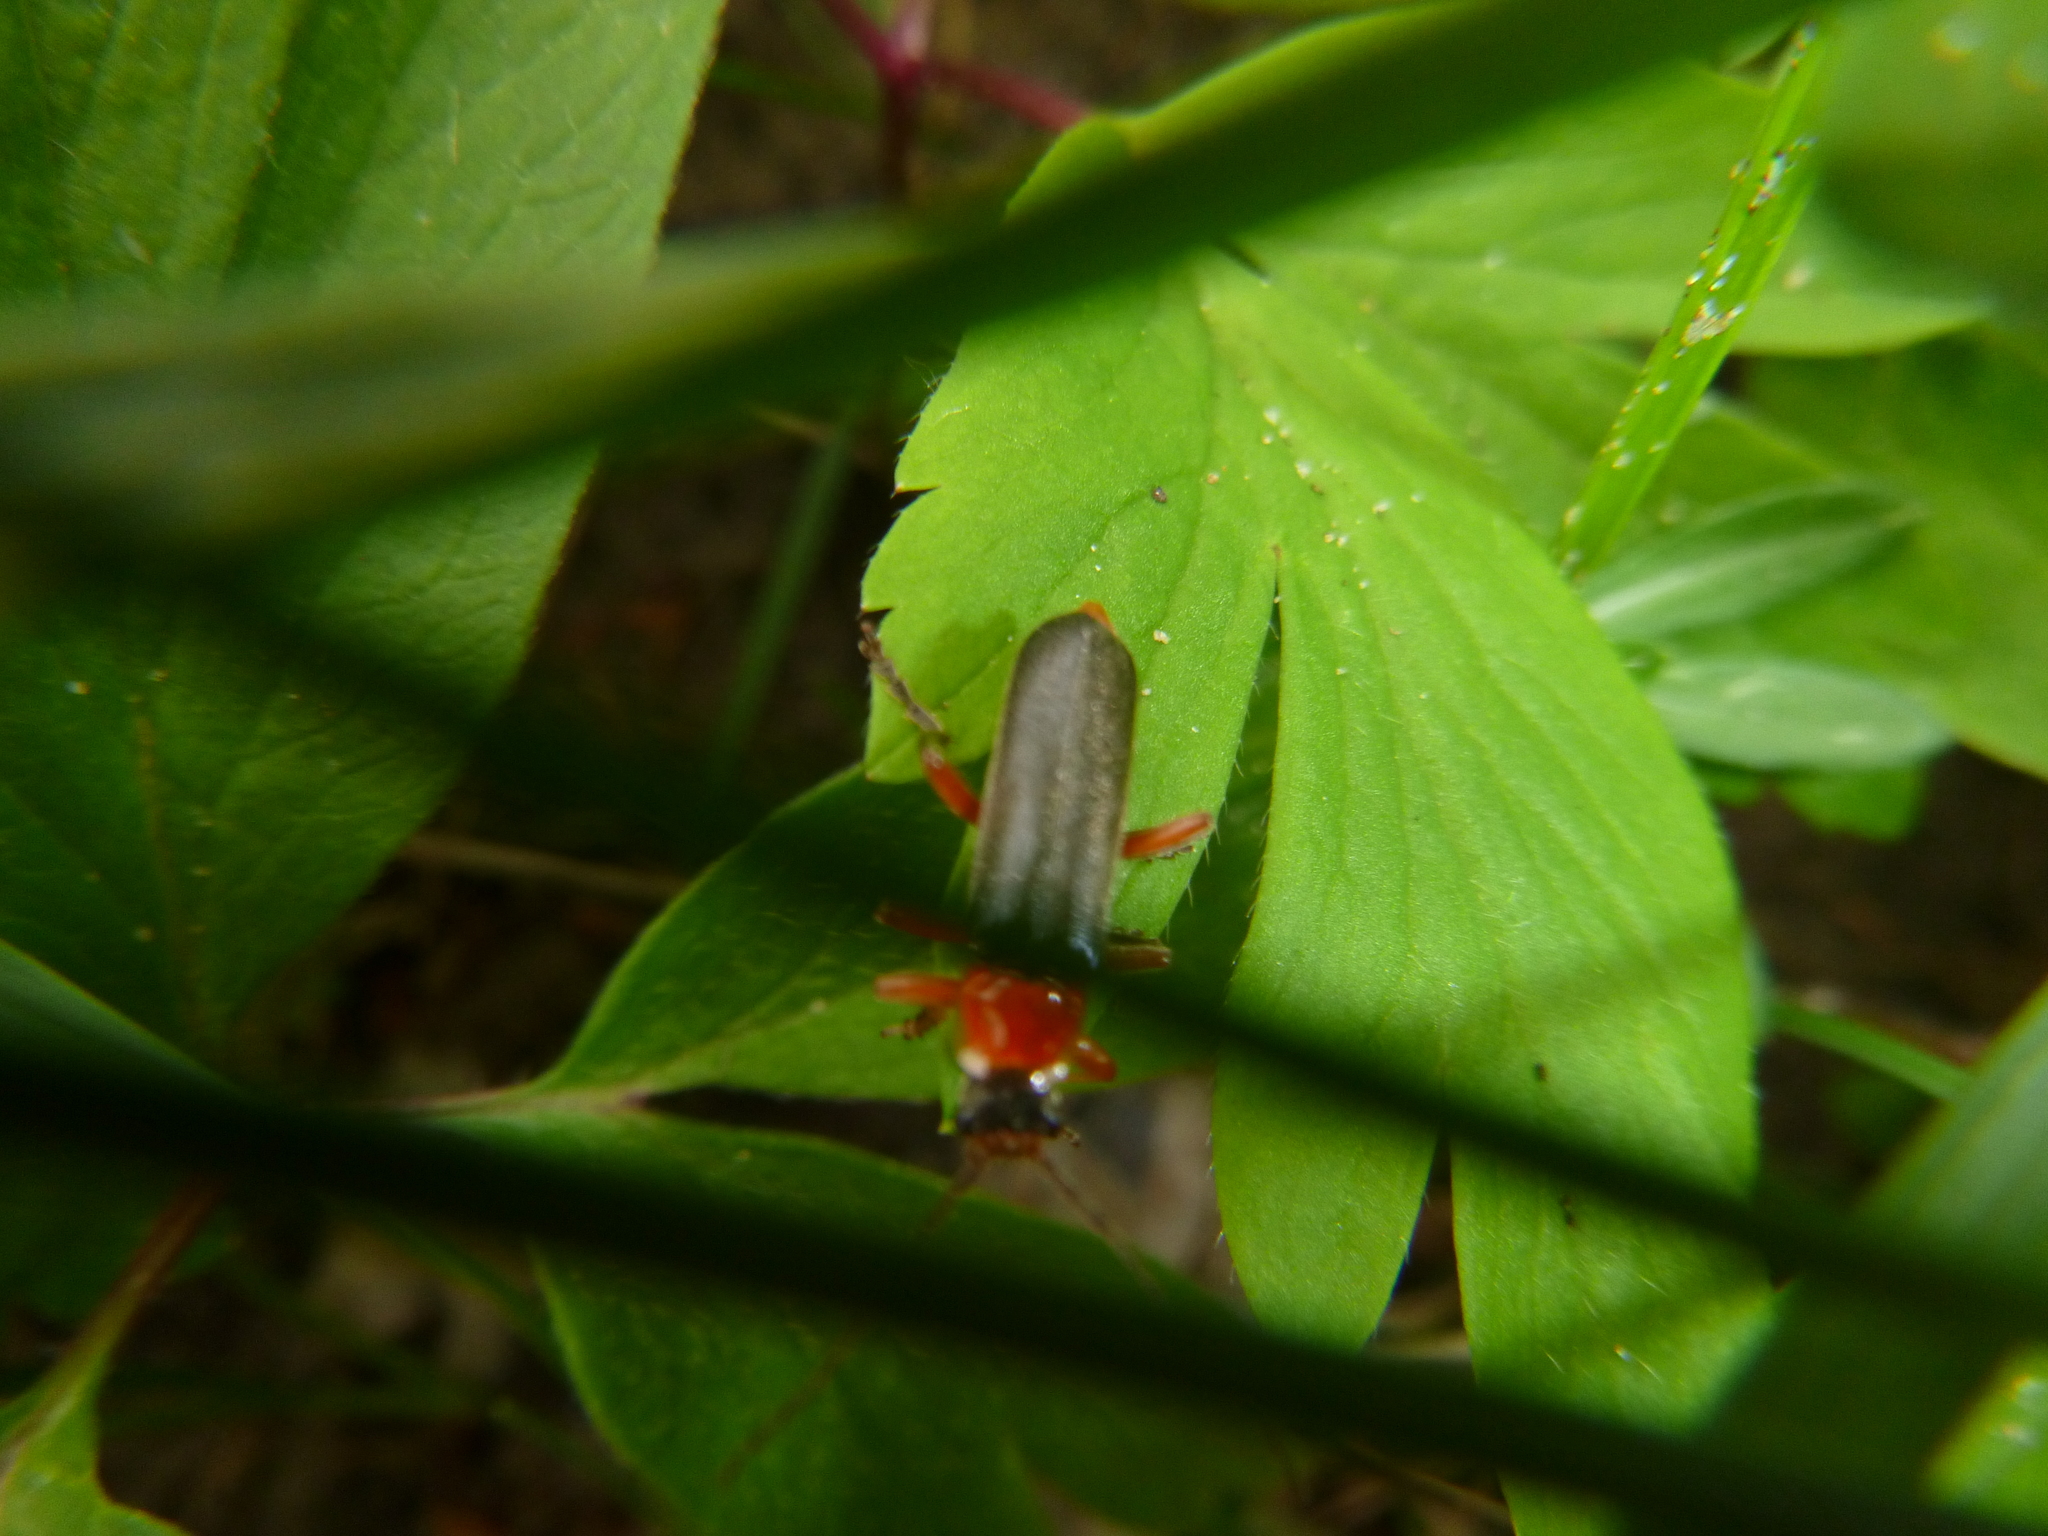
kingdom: Animalia
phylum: Arthropoda
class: Insecta
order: Coleoptera
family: Cantharidae
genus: Cantharis
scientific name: Cantharis pellucida
